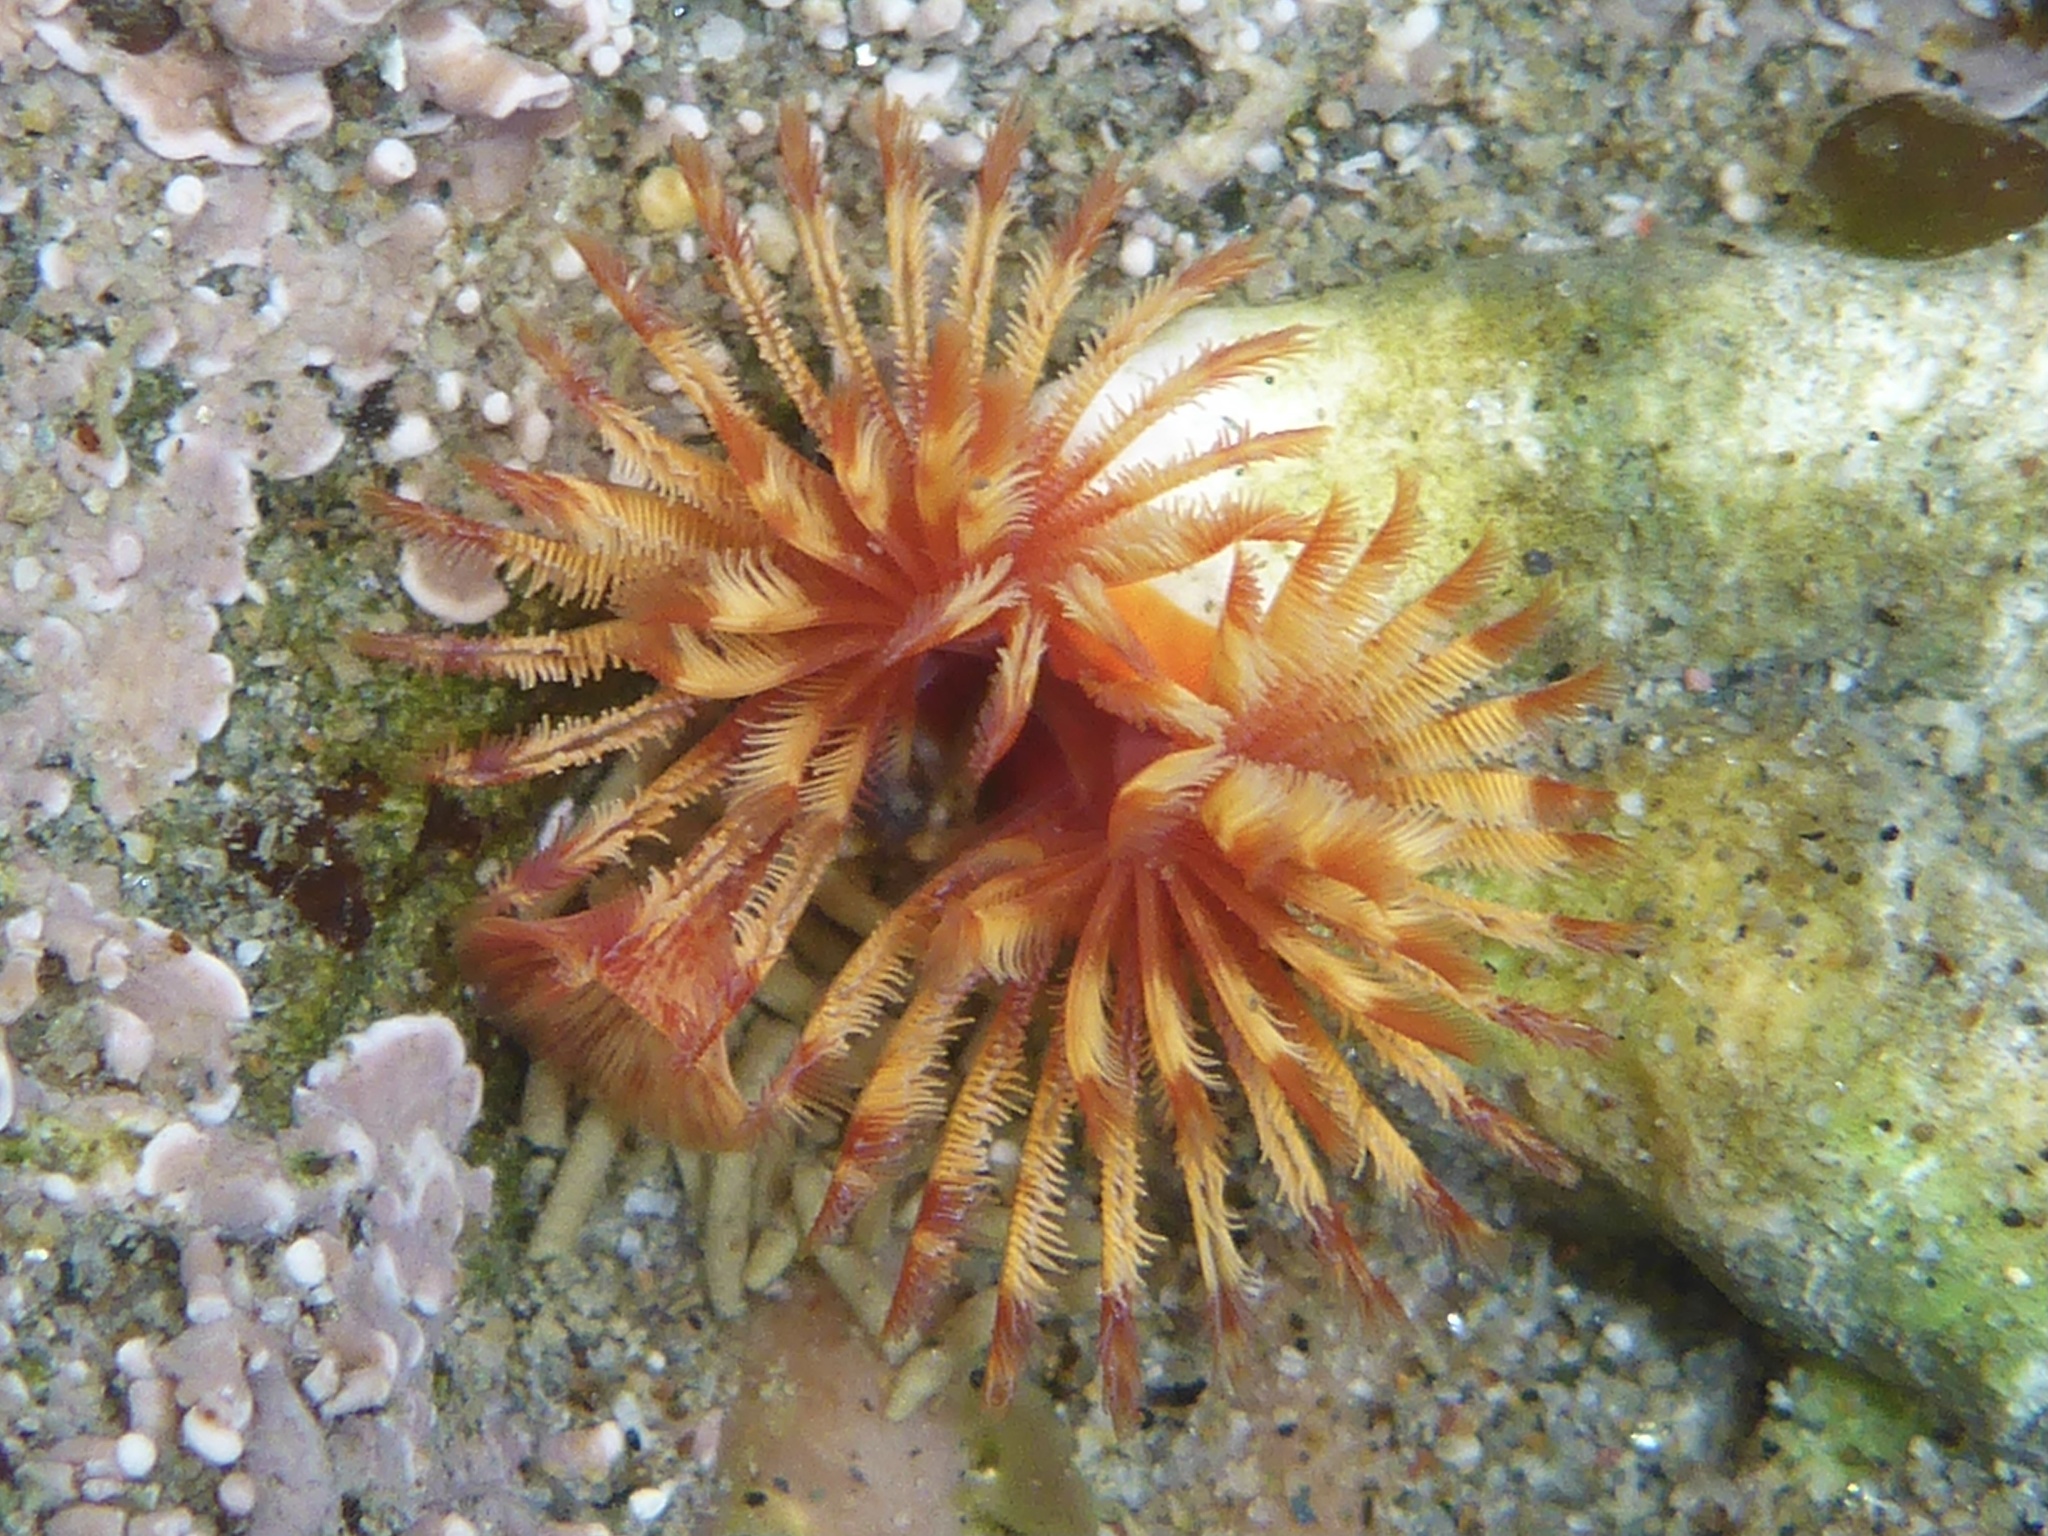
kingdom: Animalia
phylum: Annelida
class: Polychaeta
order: Sabellida
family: Serpulidae
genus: Serpula
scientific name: Serpula columbiana
